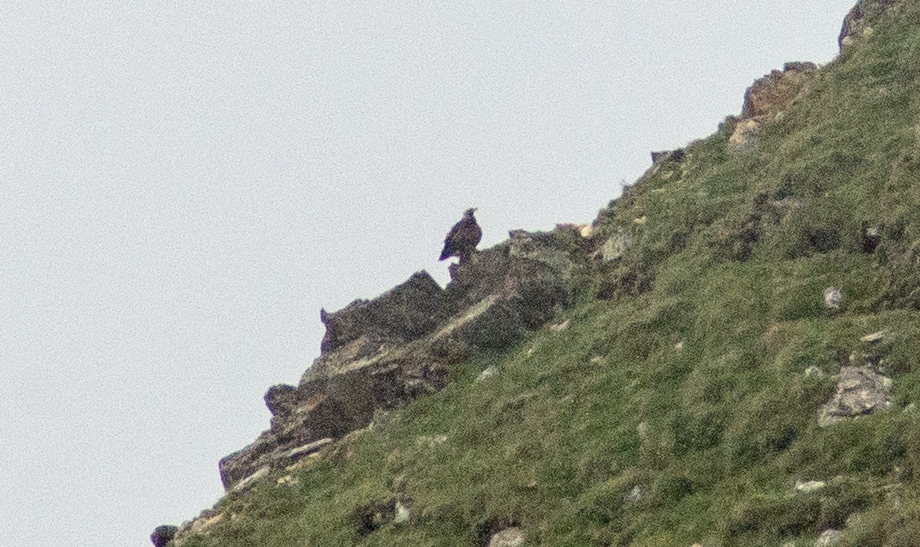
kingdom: Animalia
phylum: Chordata
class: Aves
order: Accipitriformes
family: Accipitridae
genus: Aquila
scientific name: Aquila chrysaetos
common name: Golden eagle
